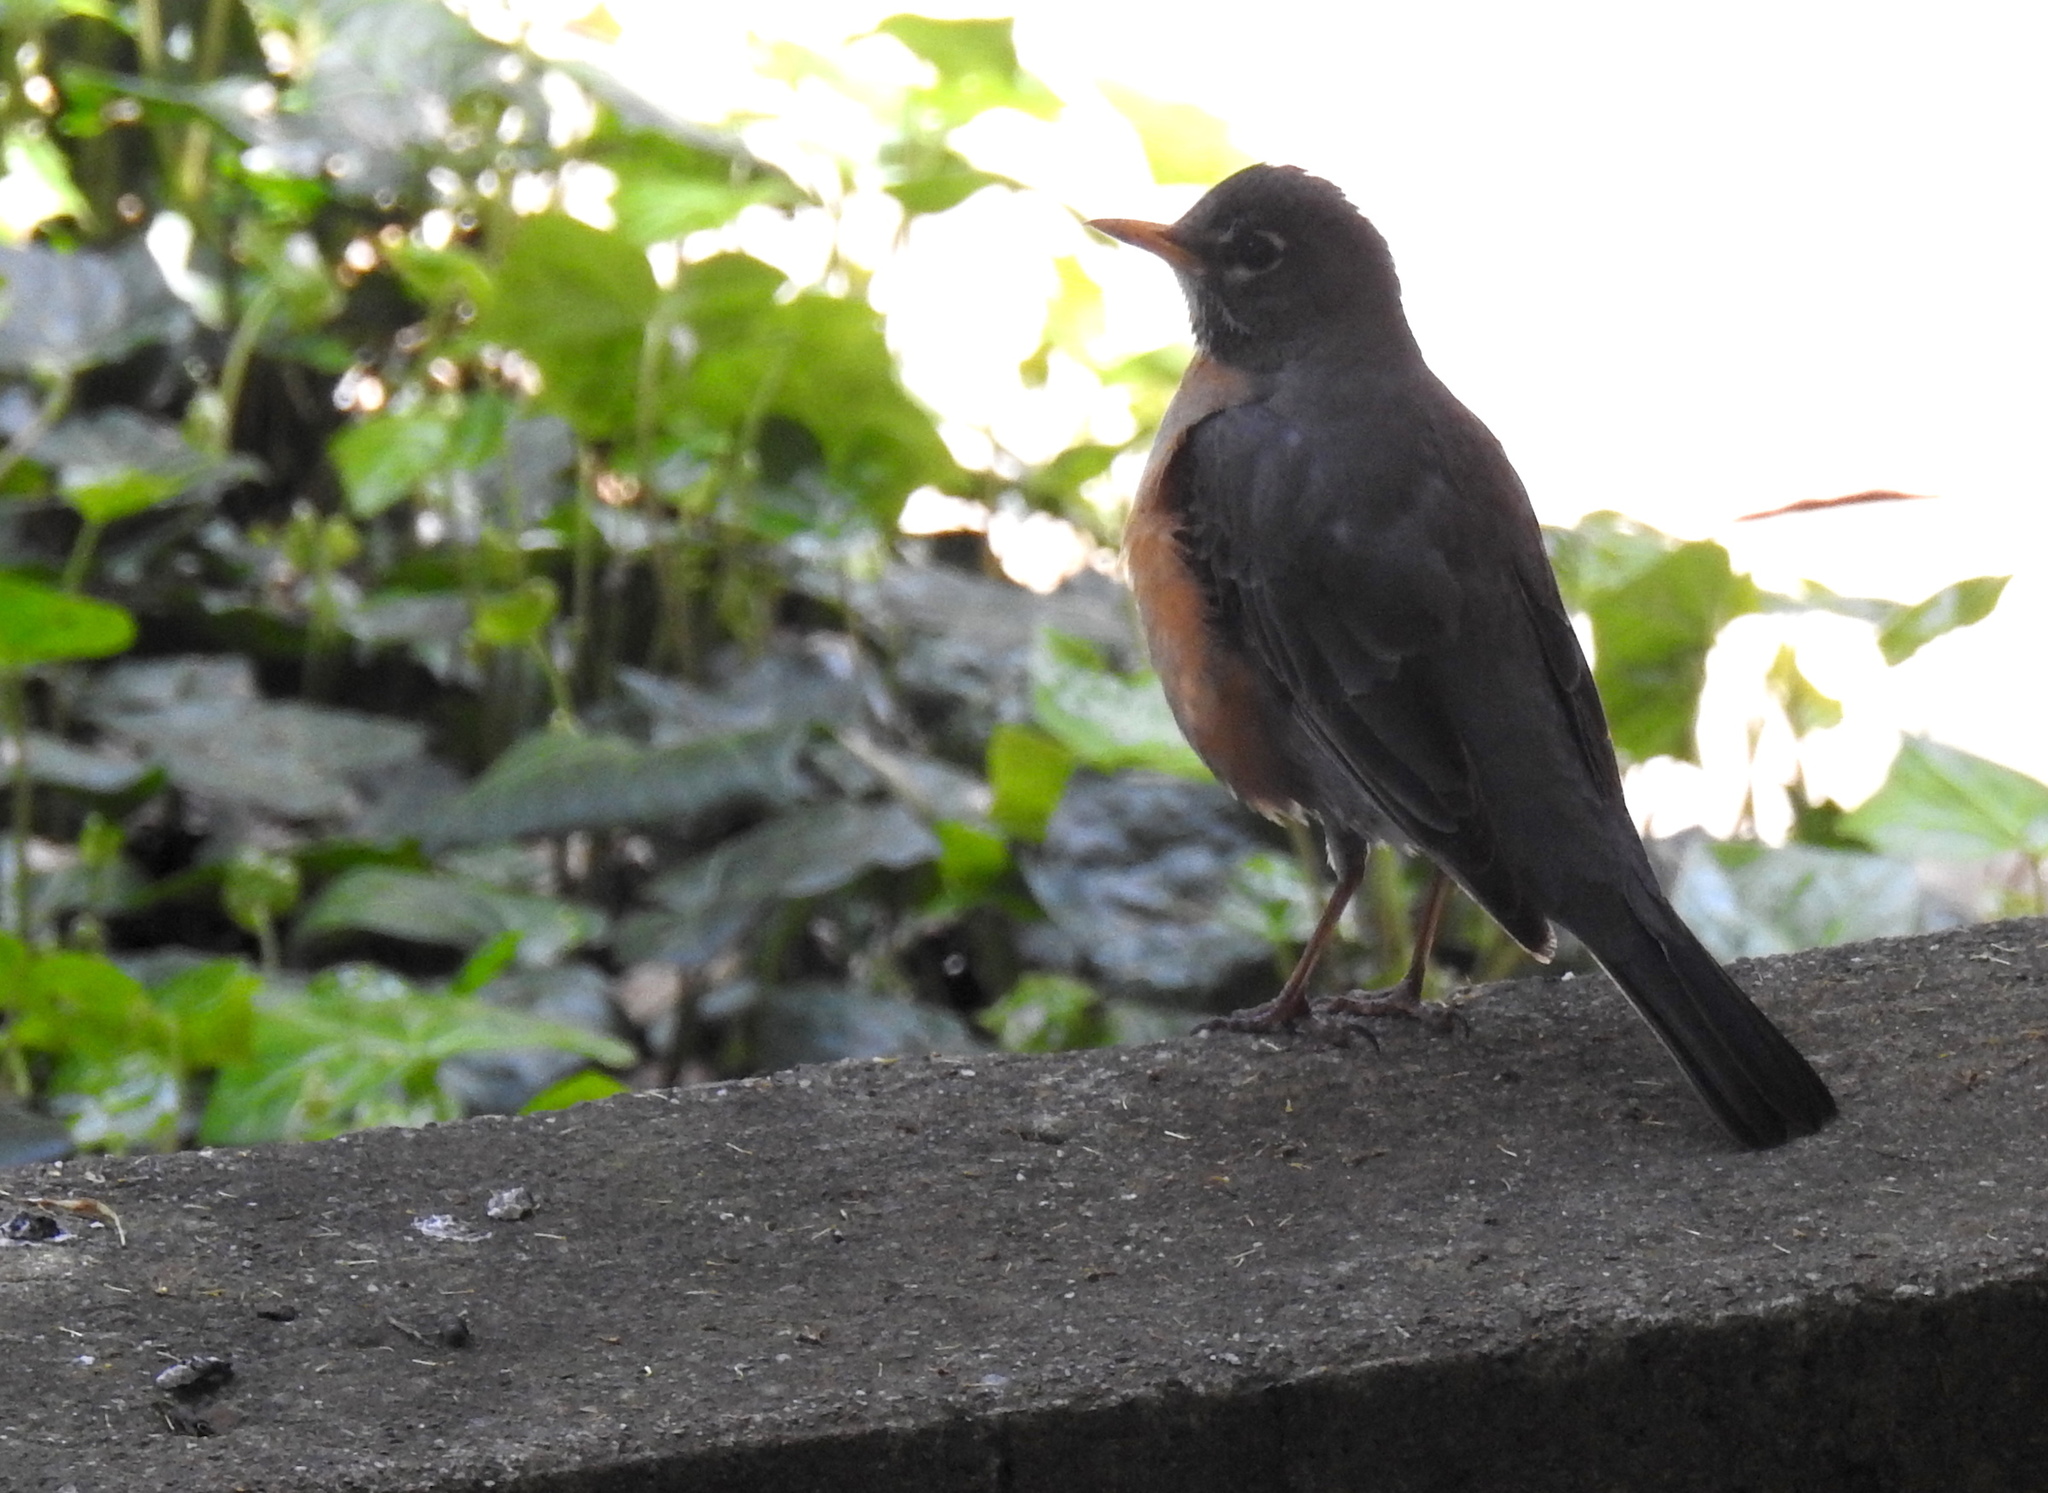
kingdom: Animalia
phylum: Chordata
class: Aves
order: Passeriformes
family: Turdidae
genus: Turdus
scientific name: Turdus migratorius
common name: American robin
